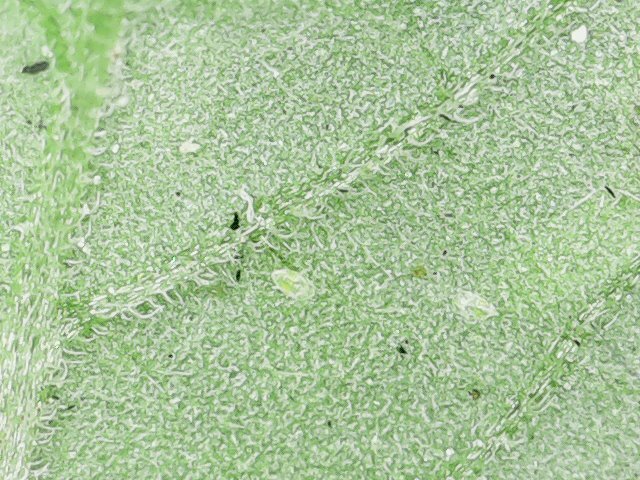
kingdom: Animalia
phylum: Arthropoda
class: Insecta
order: Hemiptera
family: Aleyrodidae
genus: Bemisia
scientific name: Bemisia tabaci
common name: Sweetpotato whitefly
